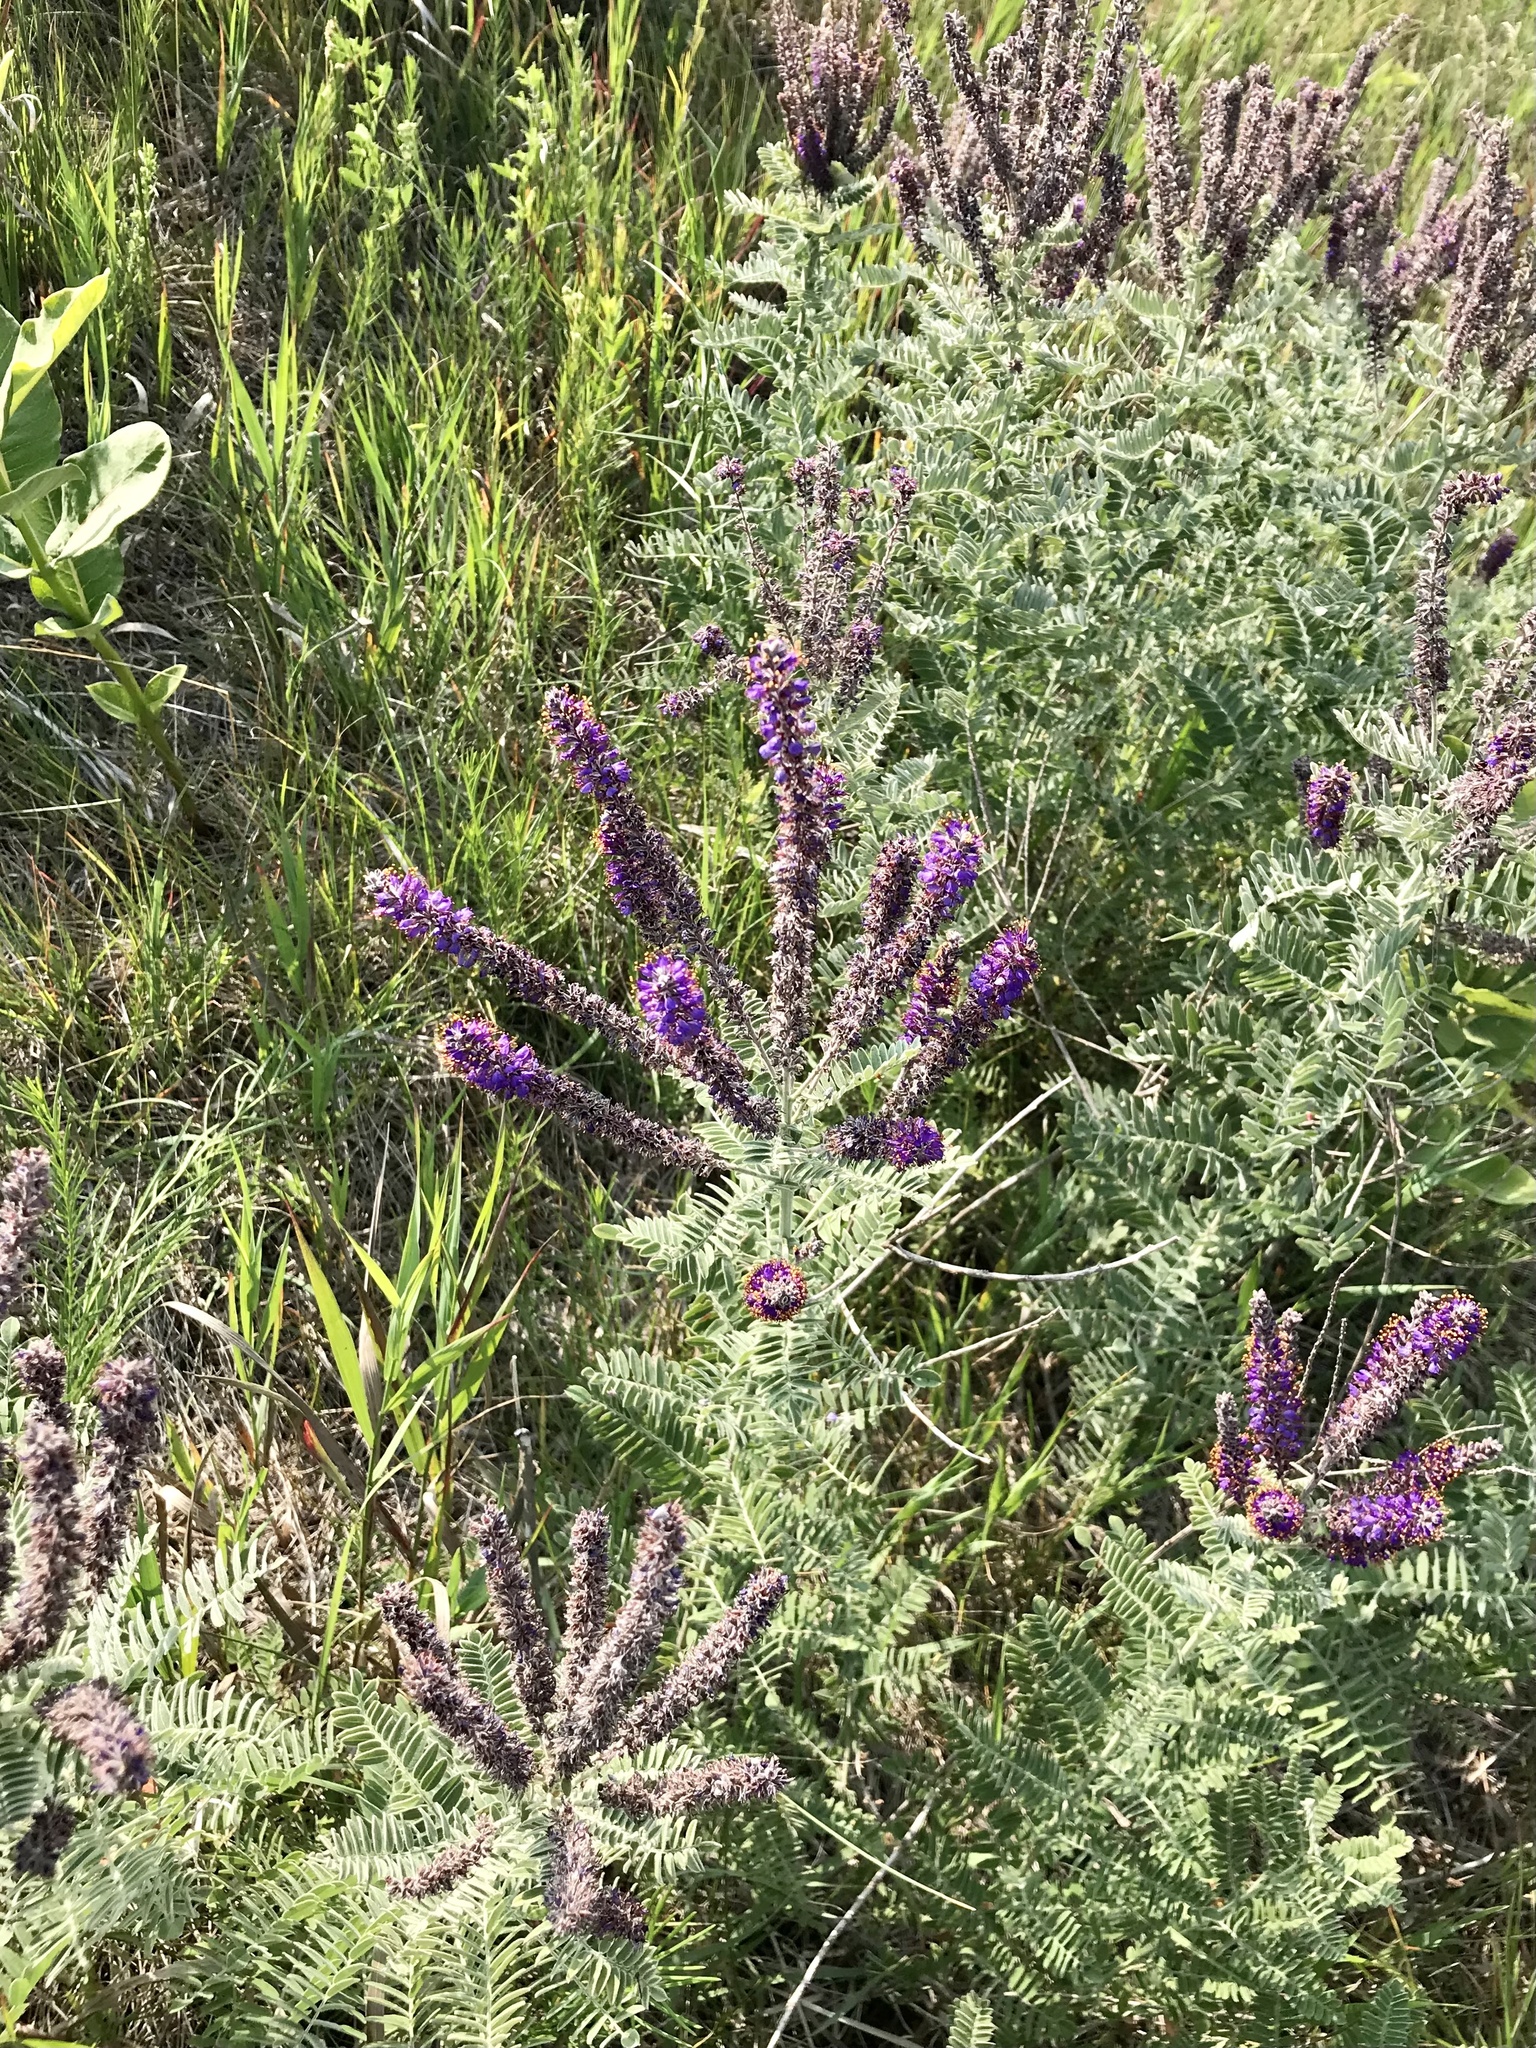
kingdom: Plantae
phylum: Tracheophyta
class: Magnoliopsida
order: Fabales
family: Fabaceae
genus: Amorpha
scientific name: Amorpha canescens
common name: Leadplant
